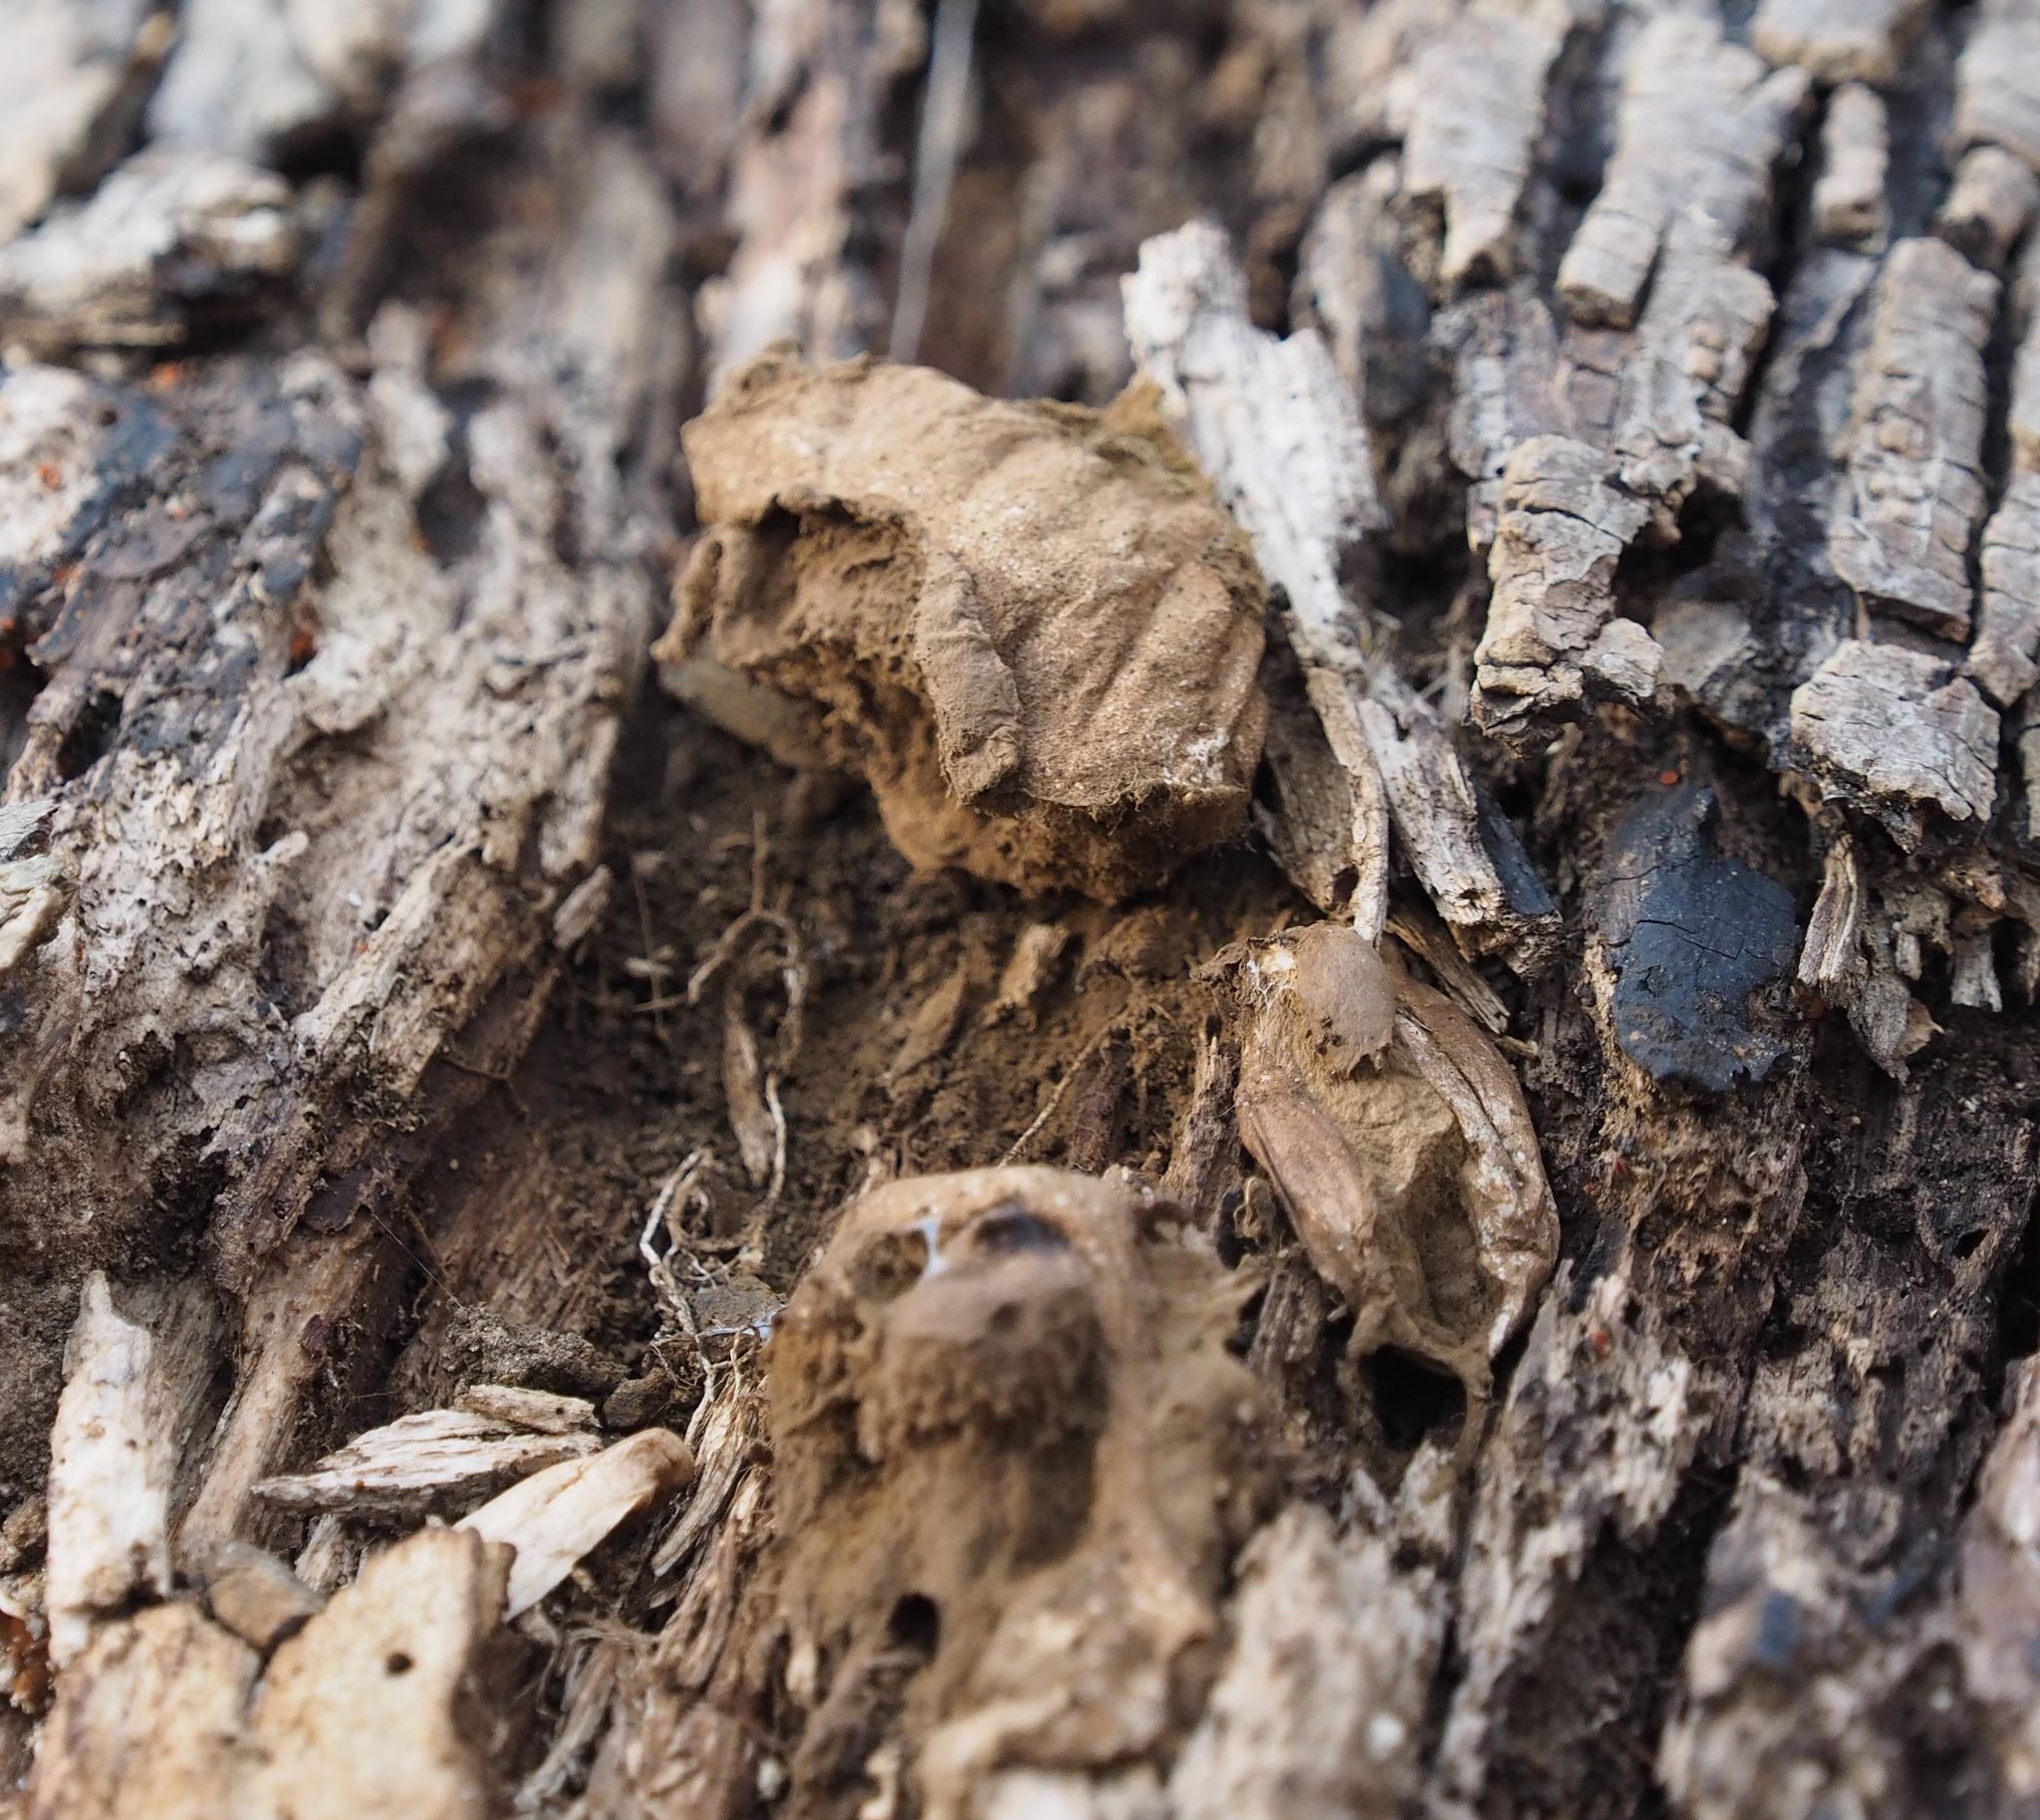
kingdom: Fungi
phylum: Basidiomycota
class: Agaricomycetes
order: Agaricales
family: Lycoperdaceae
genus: Apioperdon
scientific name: Apioperdon pyriforme
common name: Pear-shaped puffball
